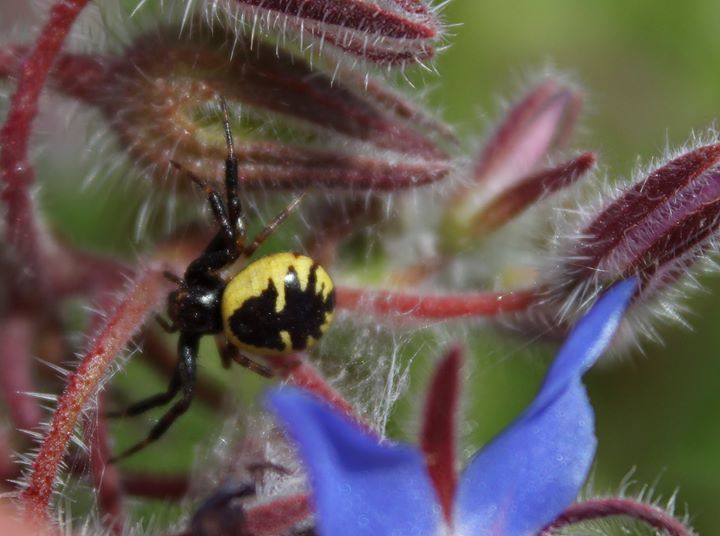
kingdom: Animalia
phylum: Arthropoda
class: Arachnida
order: Araneae
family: Thomisidae
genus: Synema
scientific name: Synema globosum
